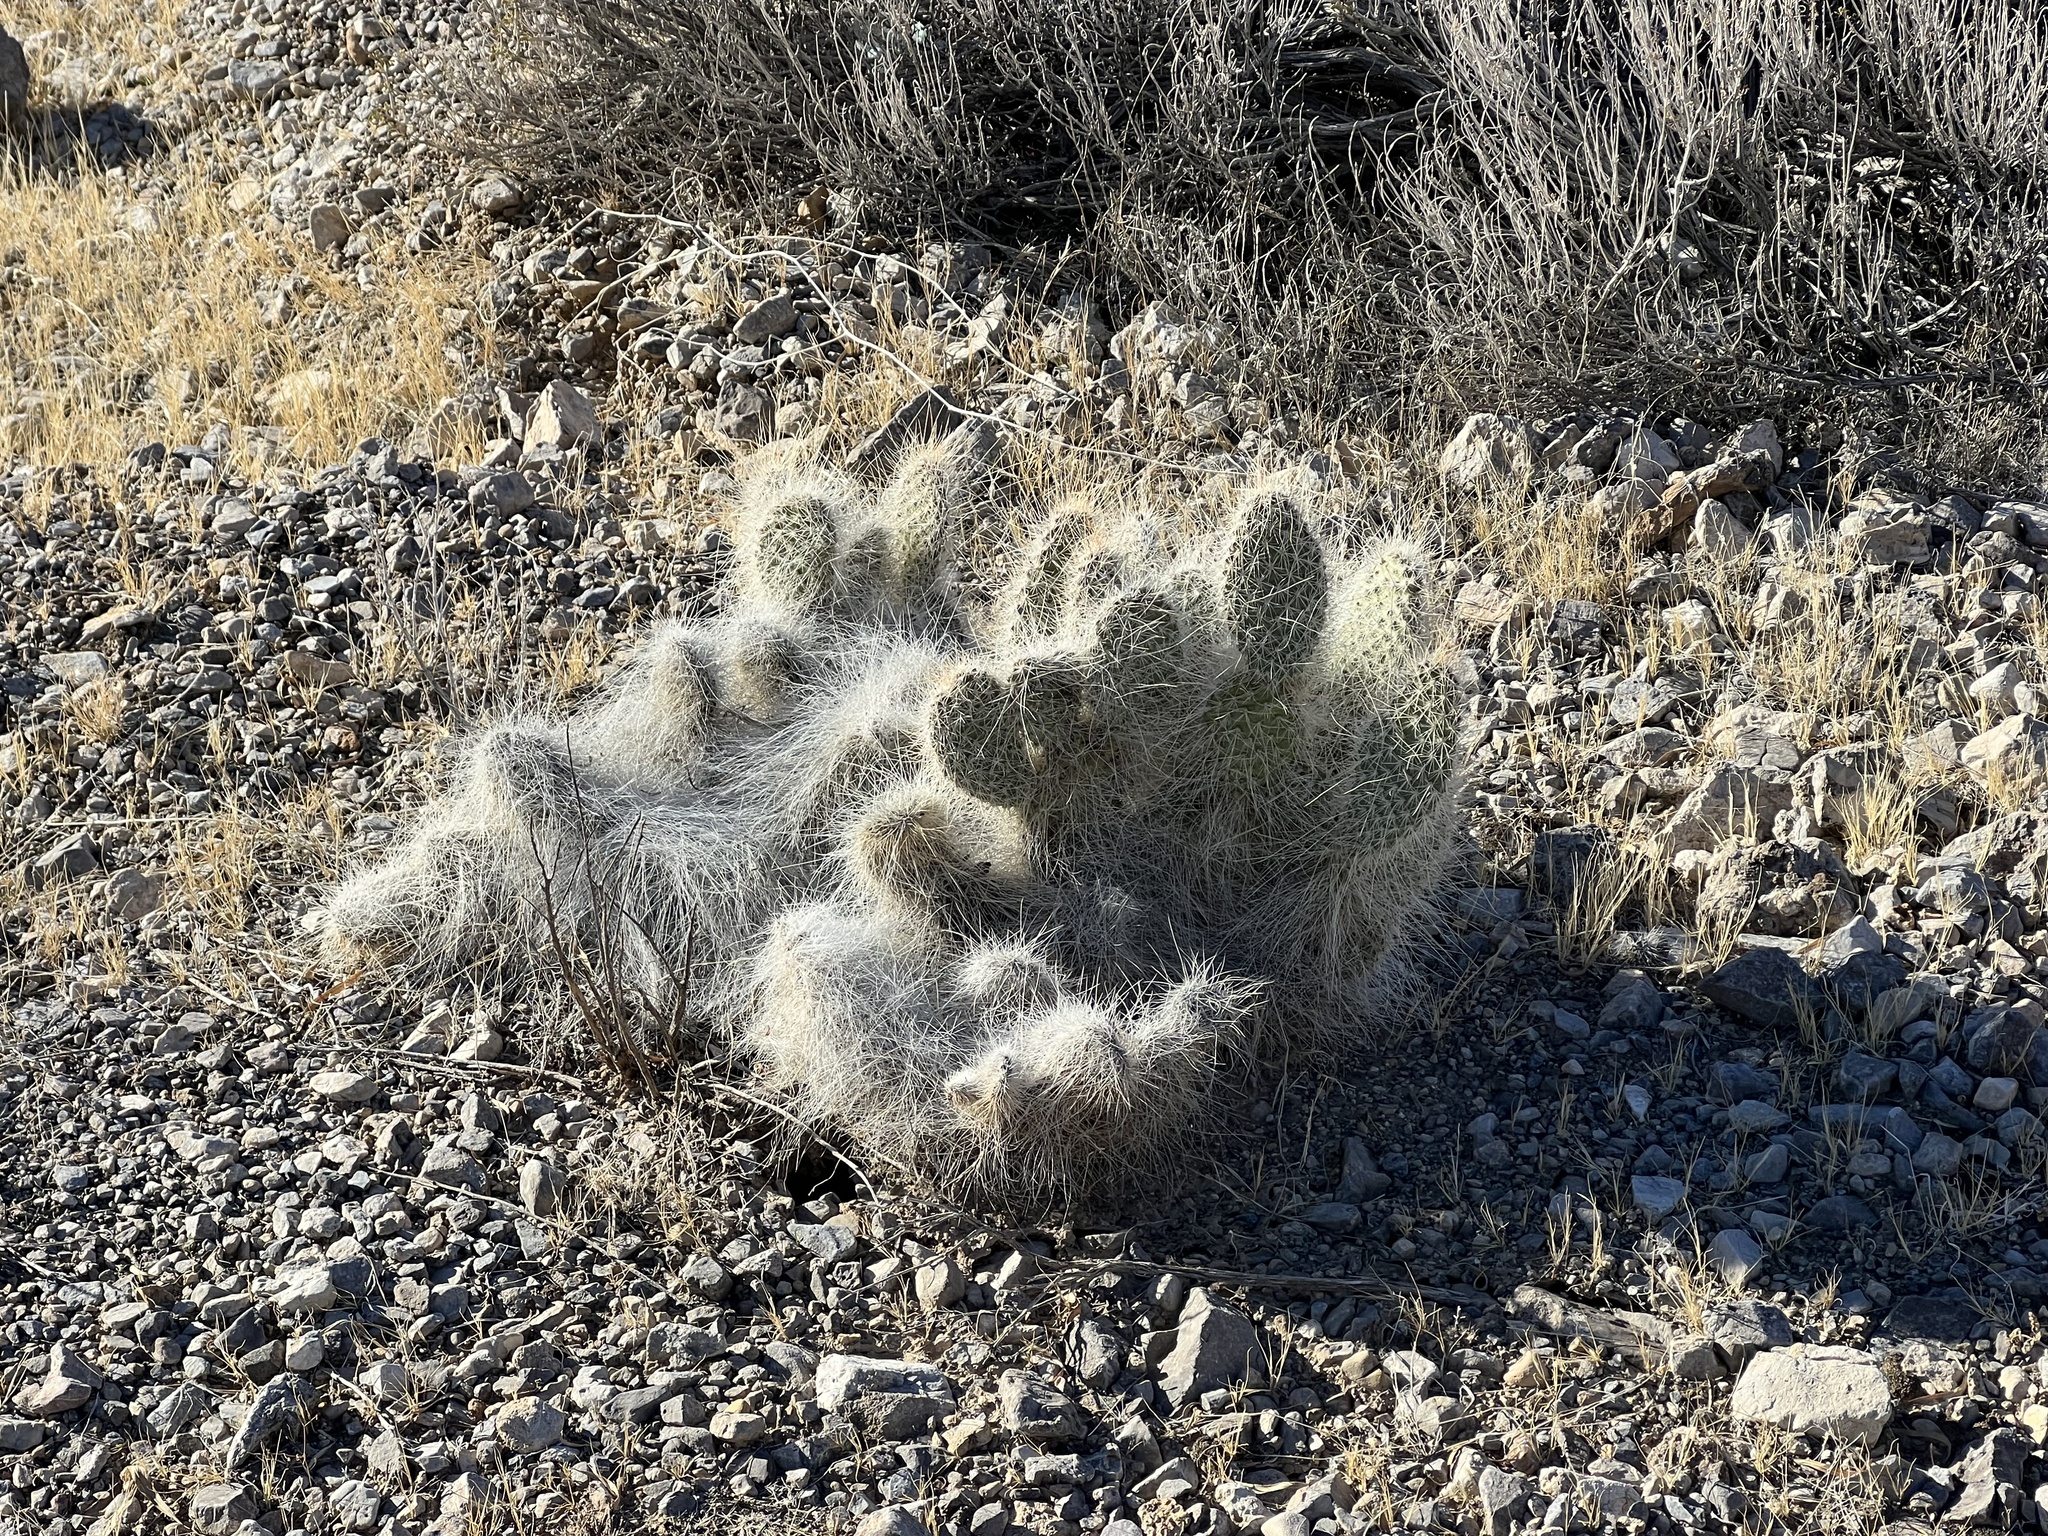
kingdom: Plantae
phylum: Tracheophyta
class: Magnoliopsida
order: Caryophyllales
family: Cactaceae
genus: Opuntia
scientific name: Opuntia polyacantha
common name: Plains prickly-pear
